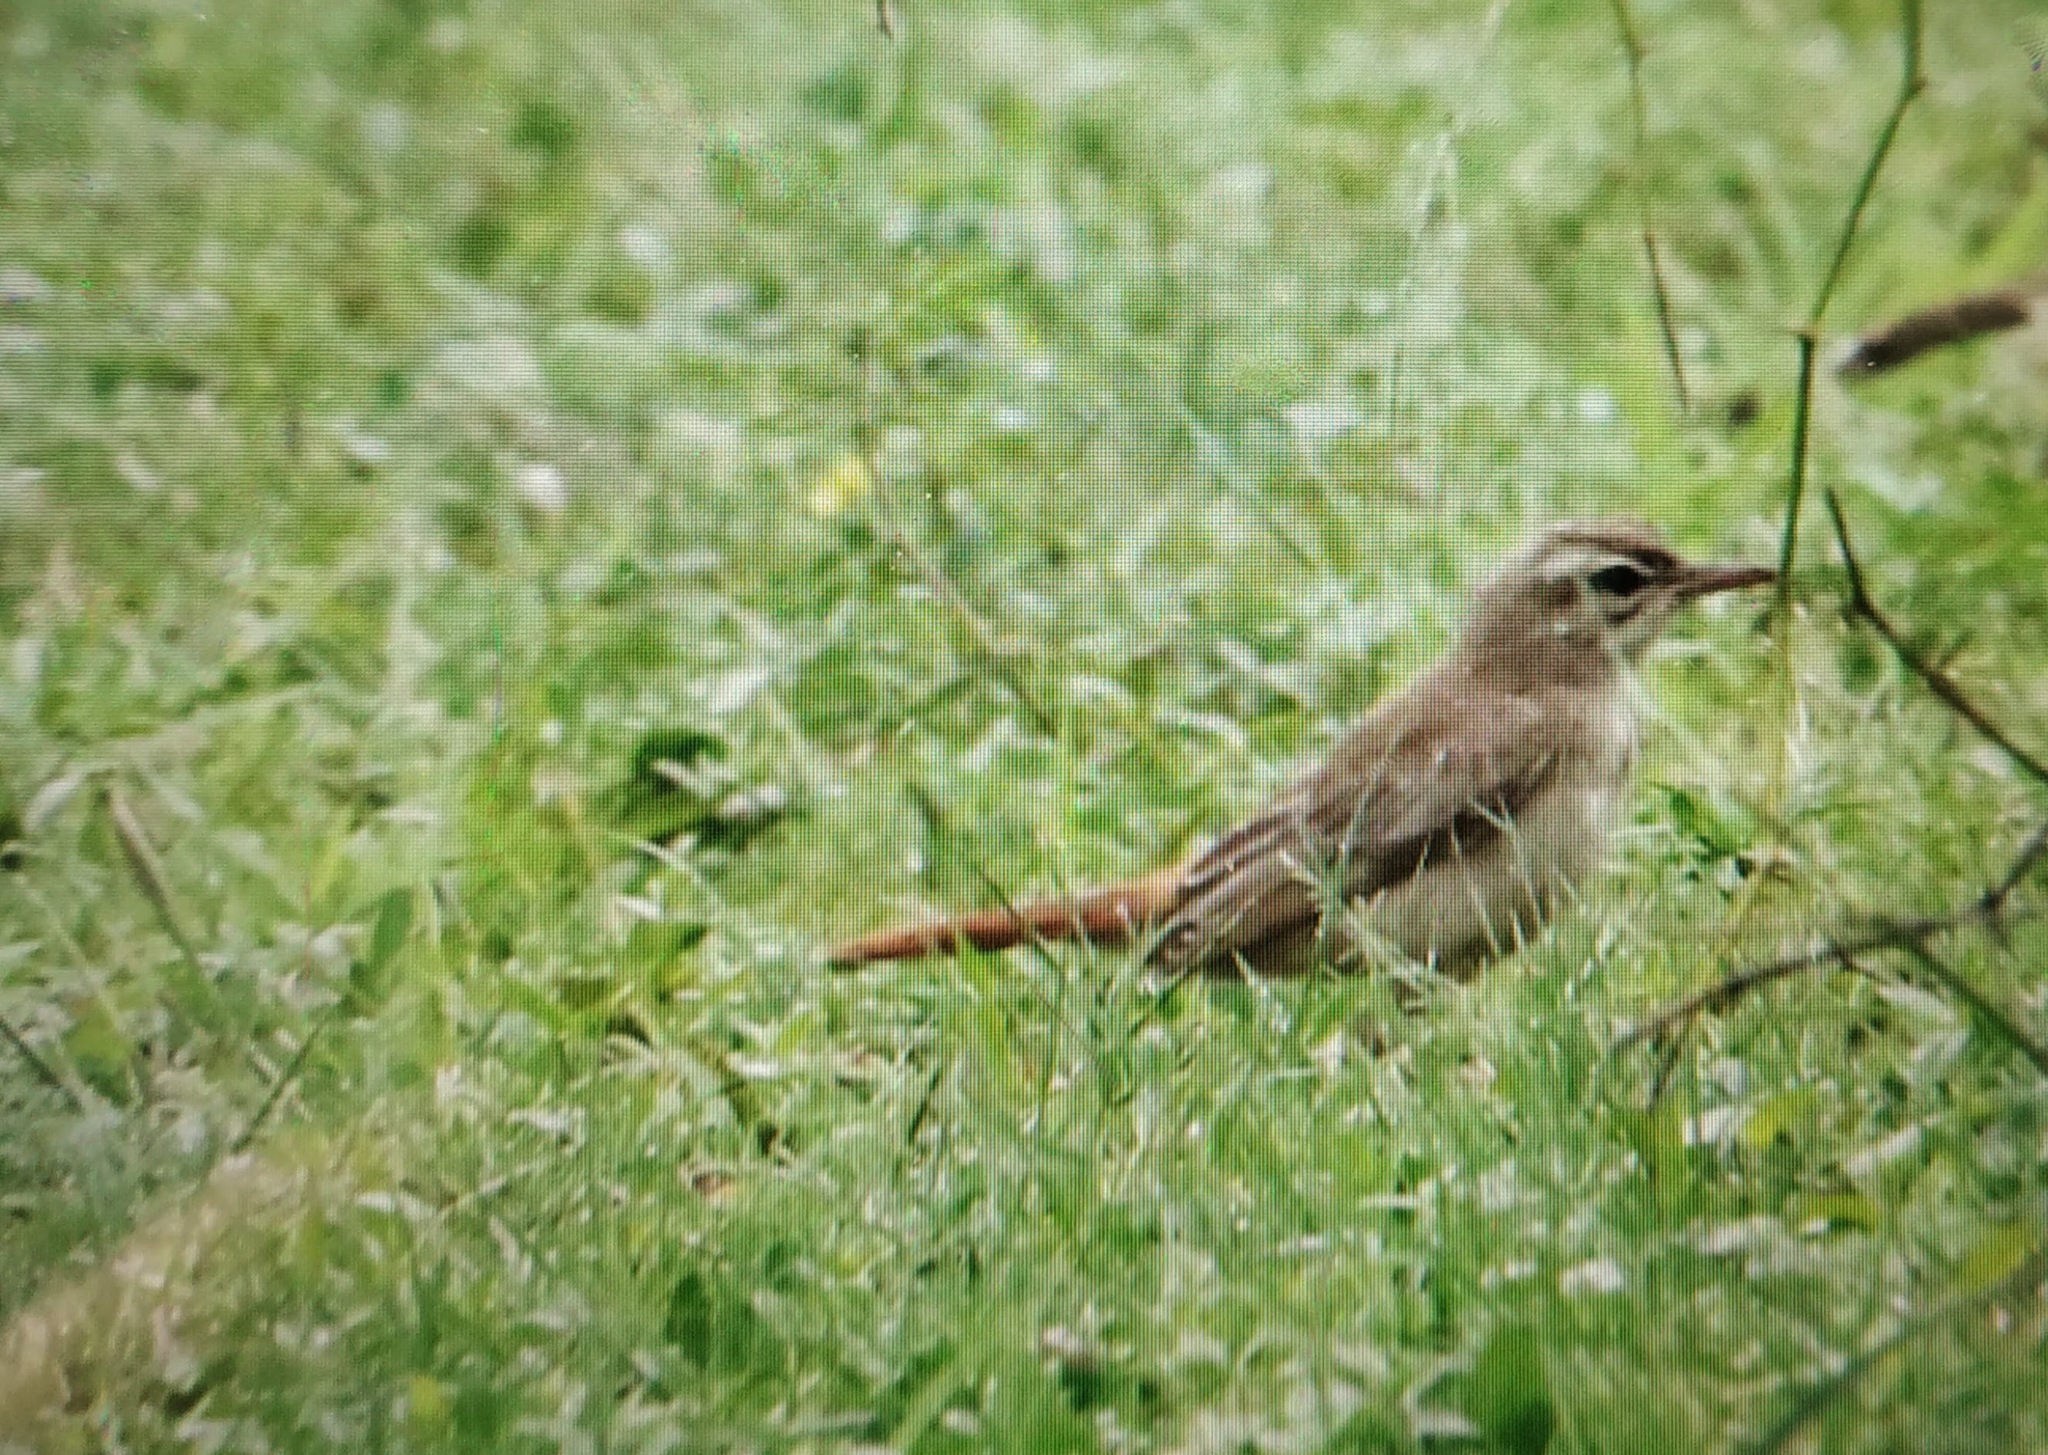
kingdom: Animalia
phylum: Chordata
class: Aves
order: Passeriformes
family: Muscicapidae
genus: Erythropygia
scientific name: Erythropygia galactotes
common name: Rufous-tailed scrub robin
